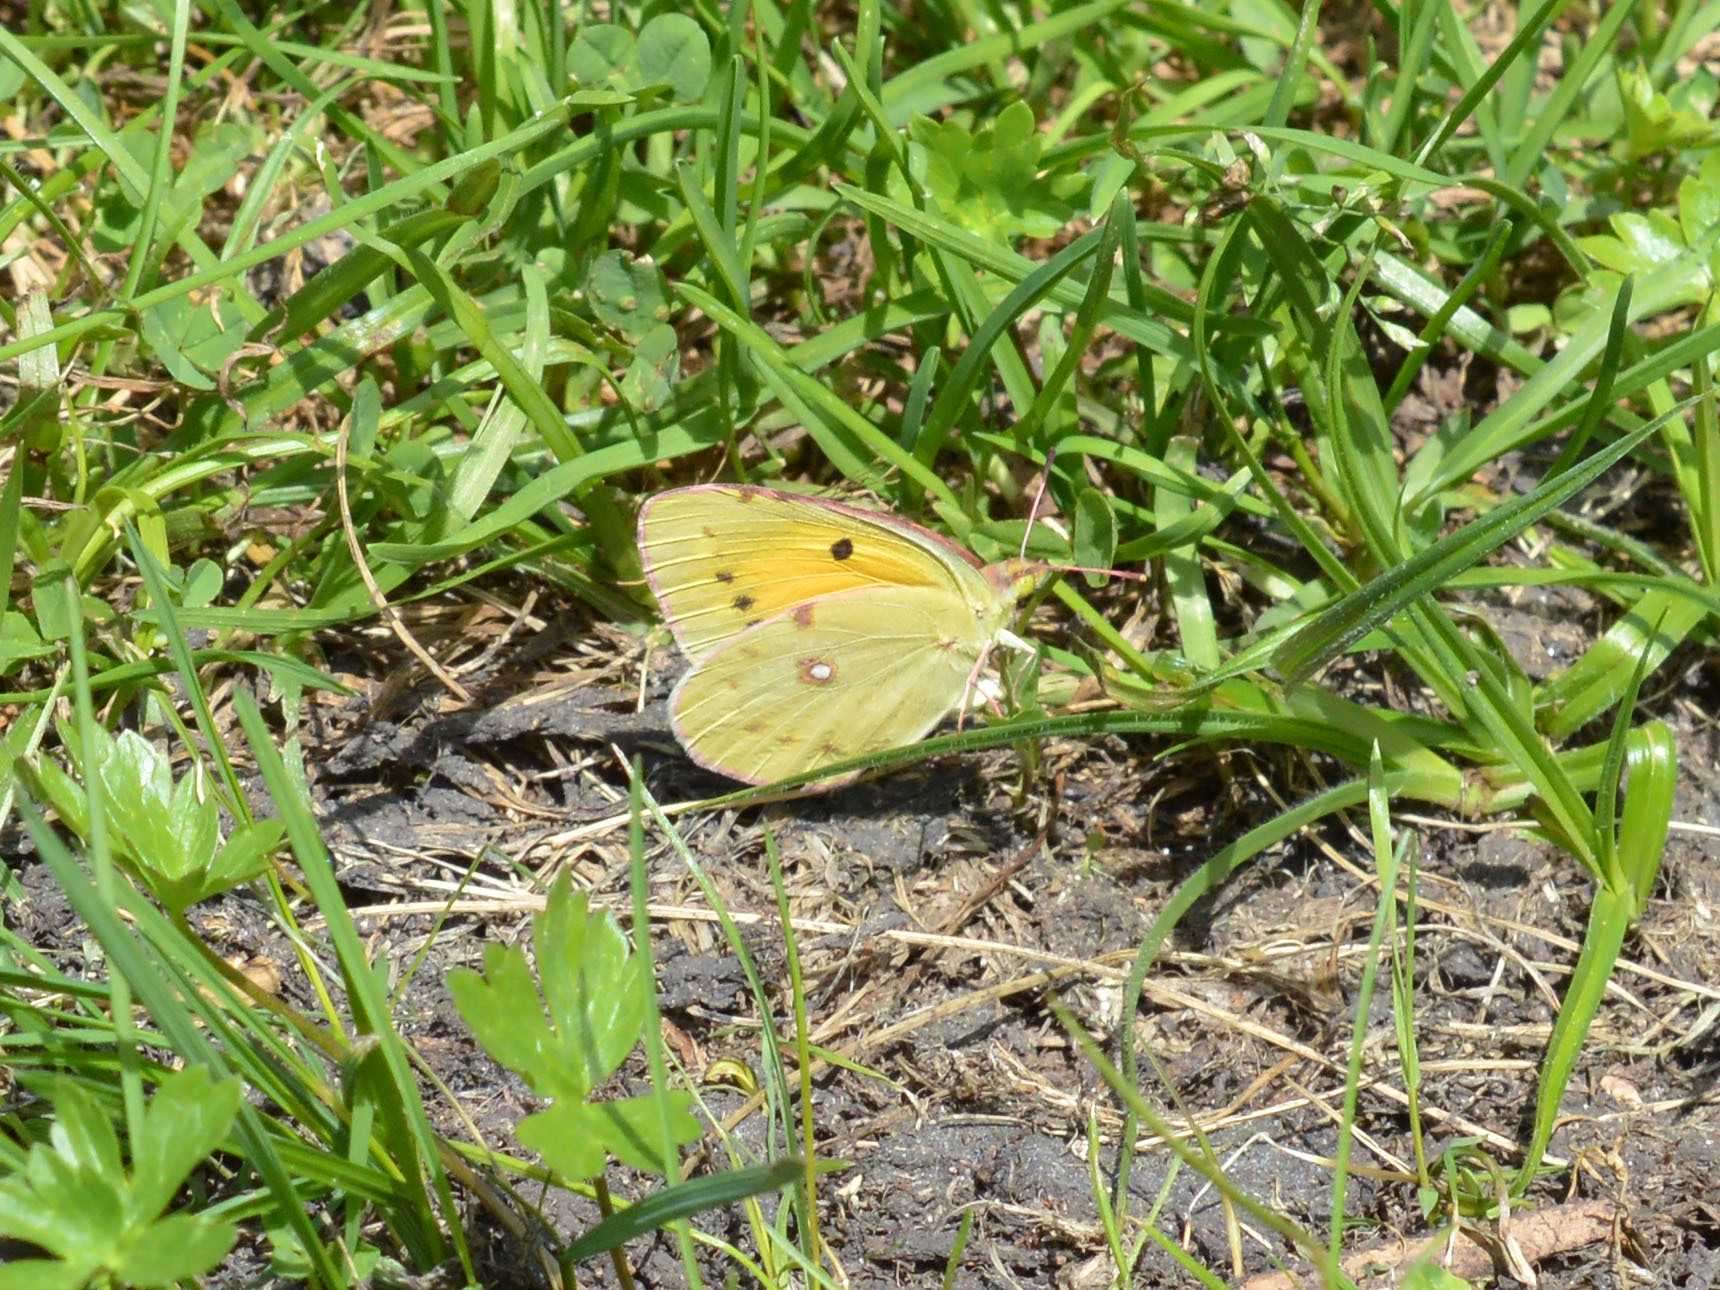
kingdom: Animalia
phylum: Arthropoda
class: Insecta
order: Lepidoptera
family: Pieridae
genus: Colias
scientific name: Colias croceus
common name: Clouded yellow
